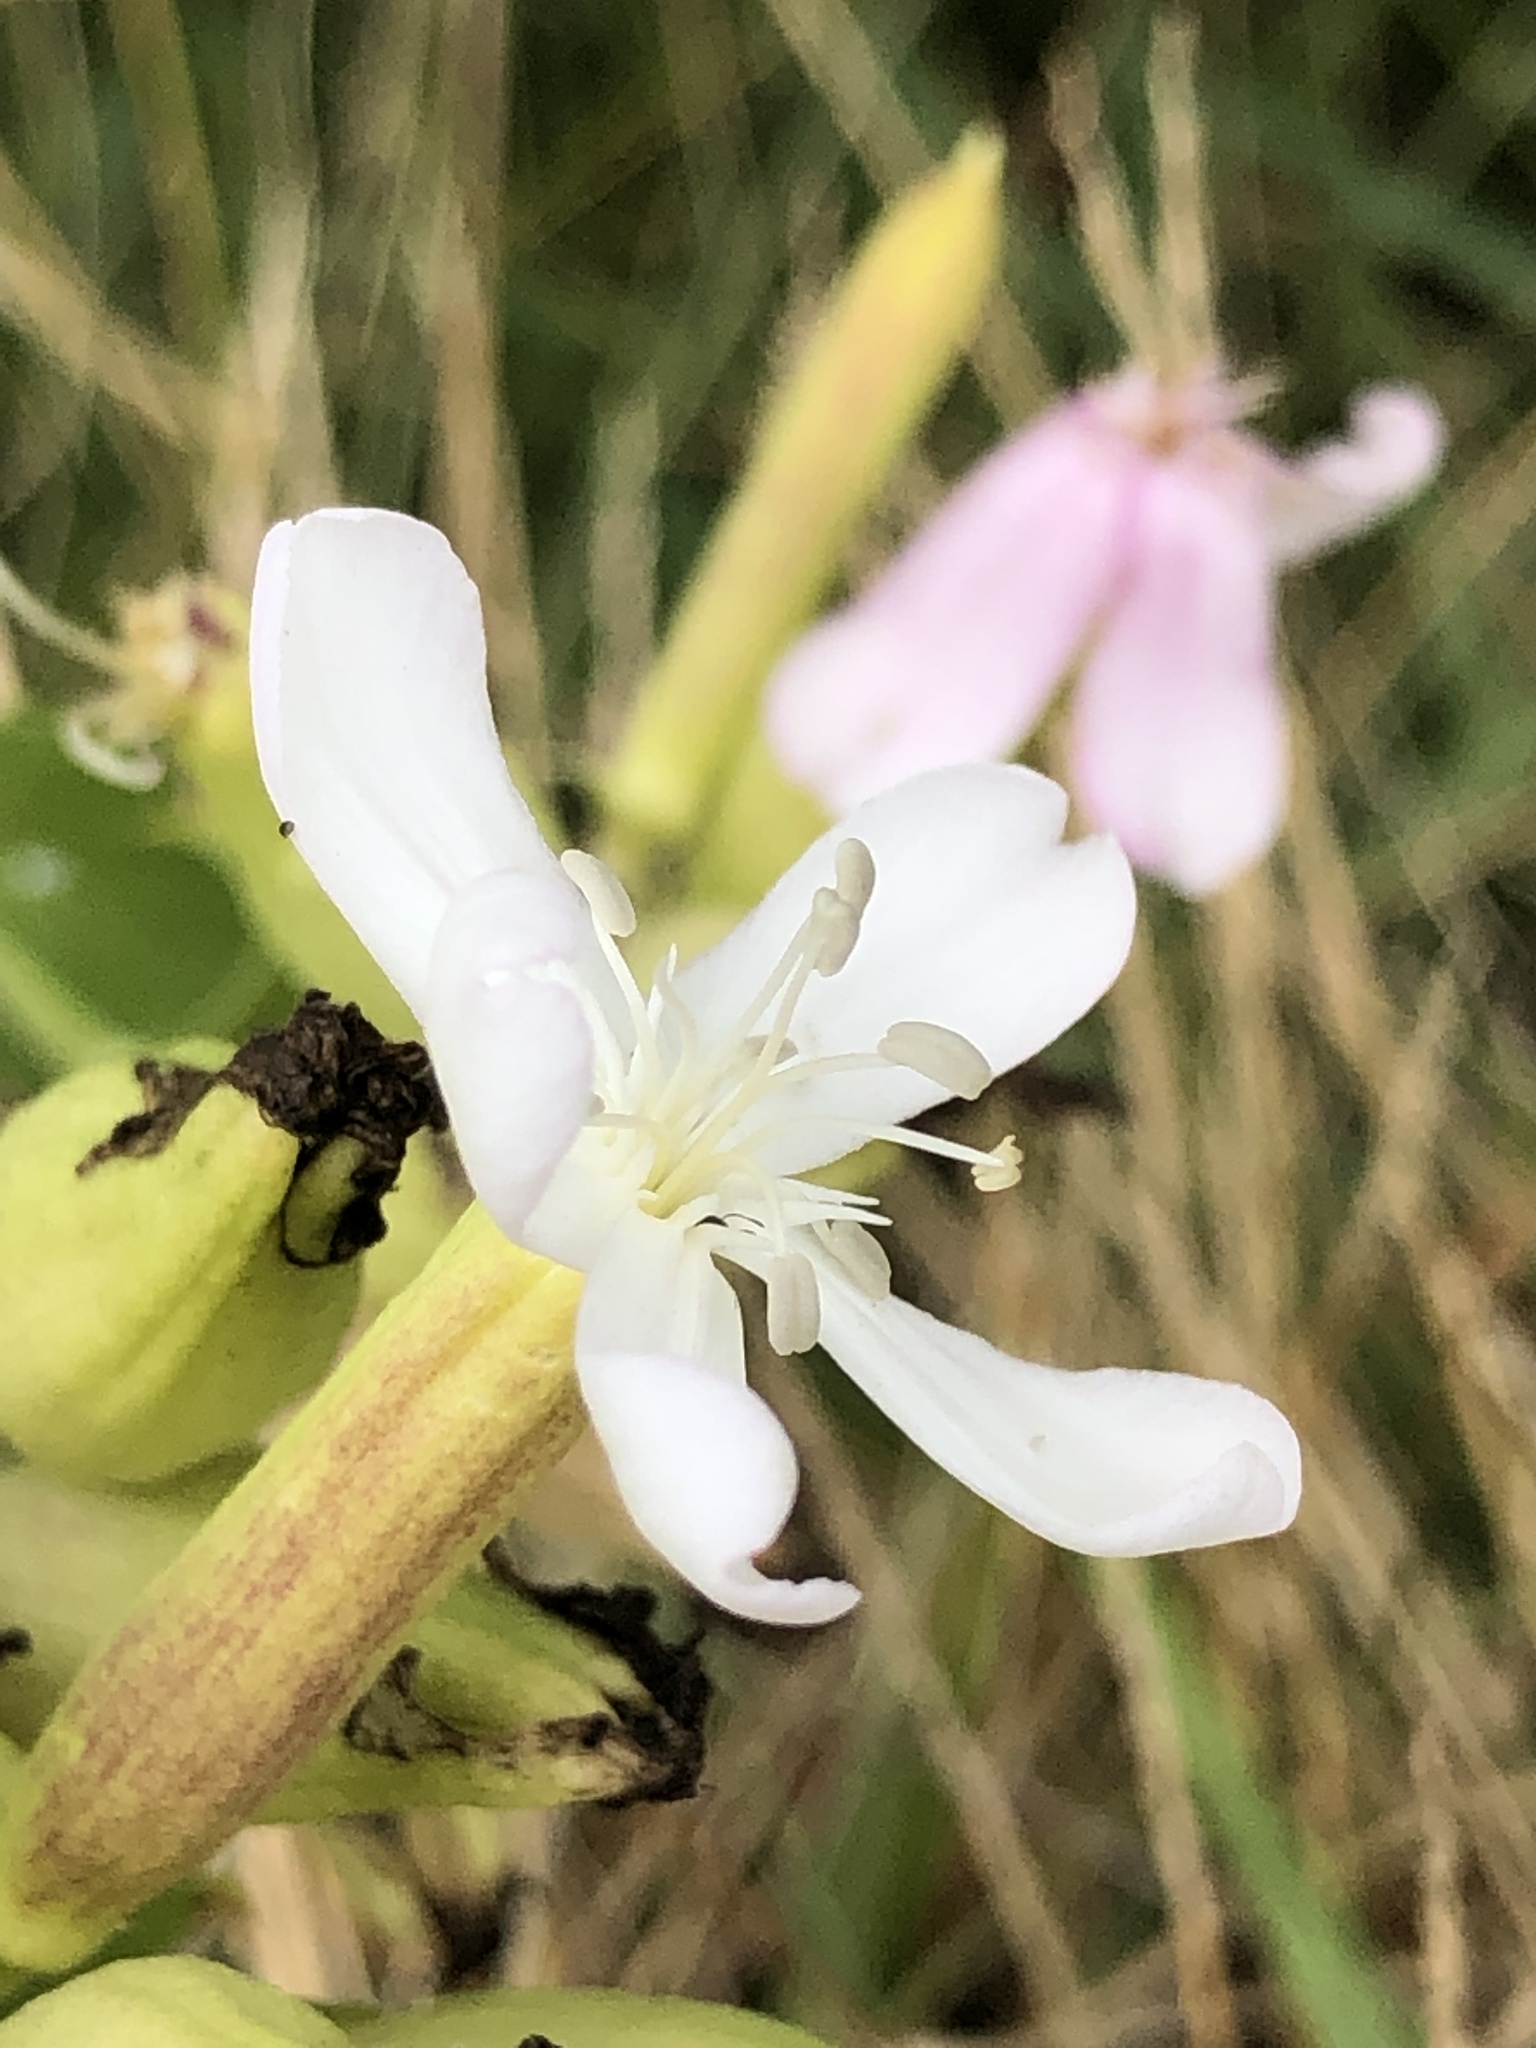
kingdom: Plantae
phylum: Tracheophyta
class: Magnoliopsida
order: Caryophyllales
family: Caryophyllaceae
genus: Saponaria
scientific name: Saponaria officinalis
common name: Soapwort
